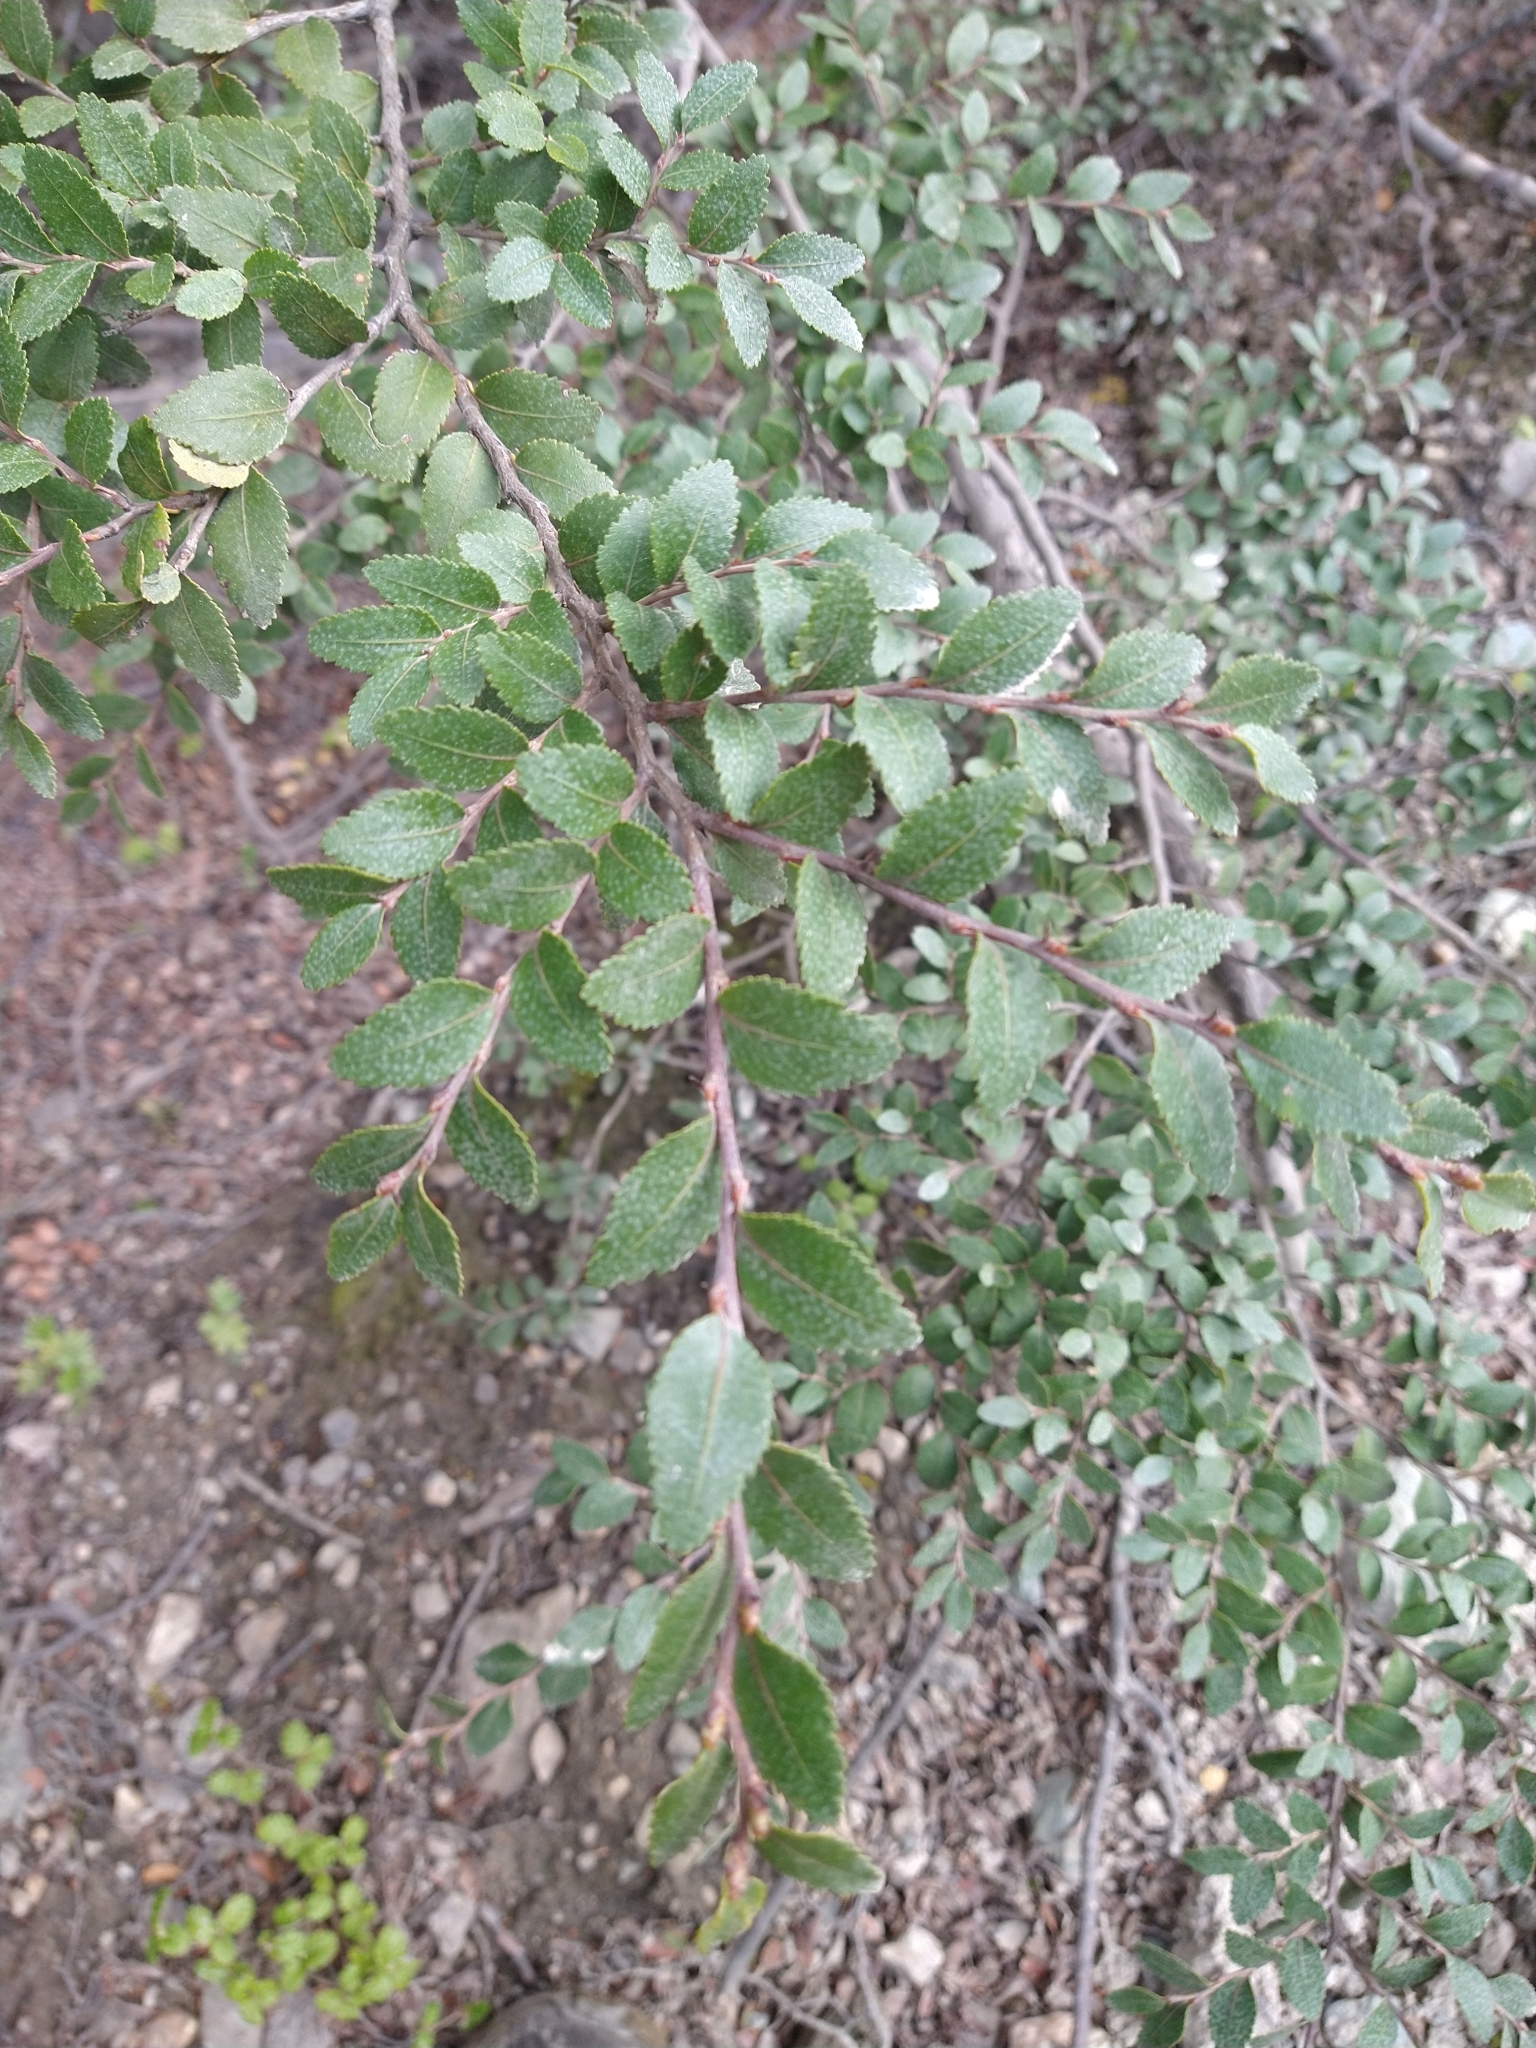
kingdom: Plantae
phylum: Tracheophyta
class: Magnoliopsida
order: Fagales
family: Nothofagaceae
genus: Nothofagus
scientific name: Nothofagus betuloides
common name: Magellan's beech
